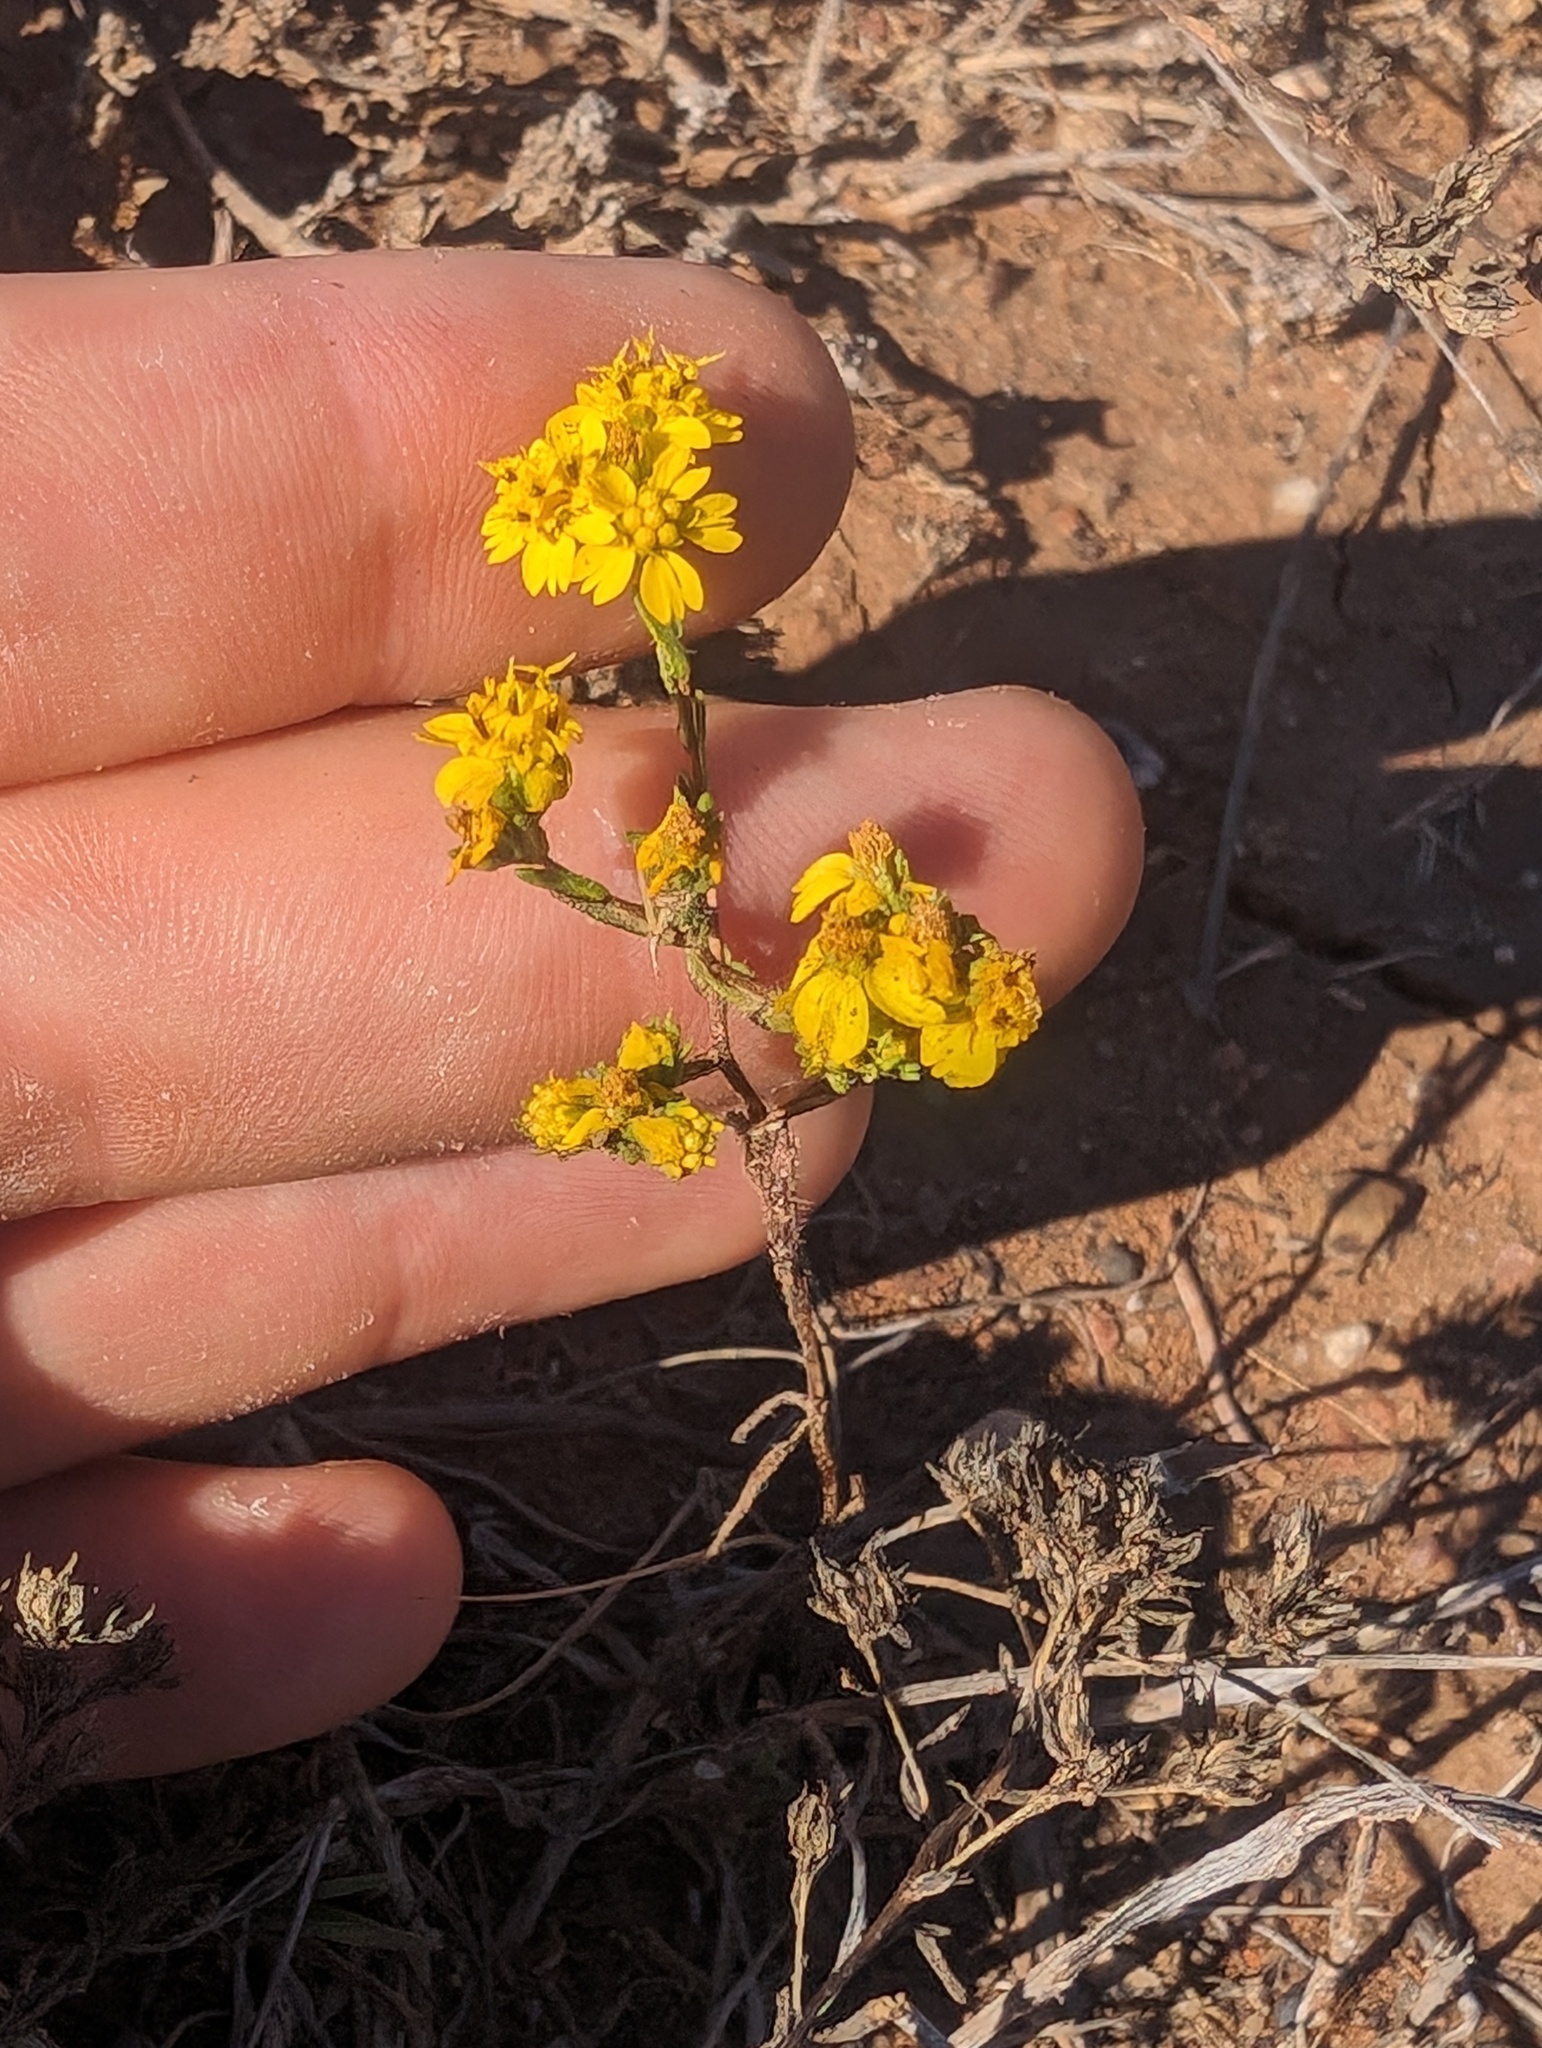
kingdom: Plantae
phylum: Tracheophyta
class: Magnoliopsida
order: Asterales
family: Asteraceae
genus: Deinandra
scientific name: Deinandra fasciculata
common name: Clustered tarweed
